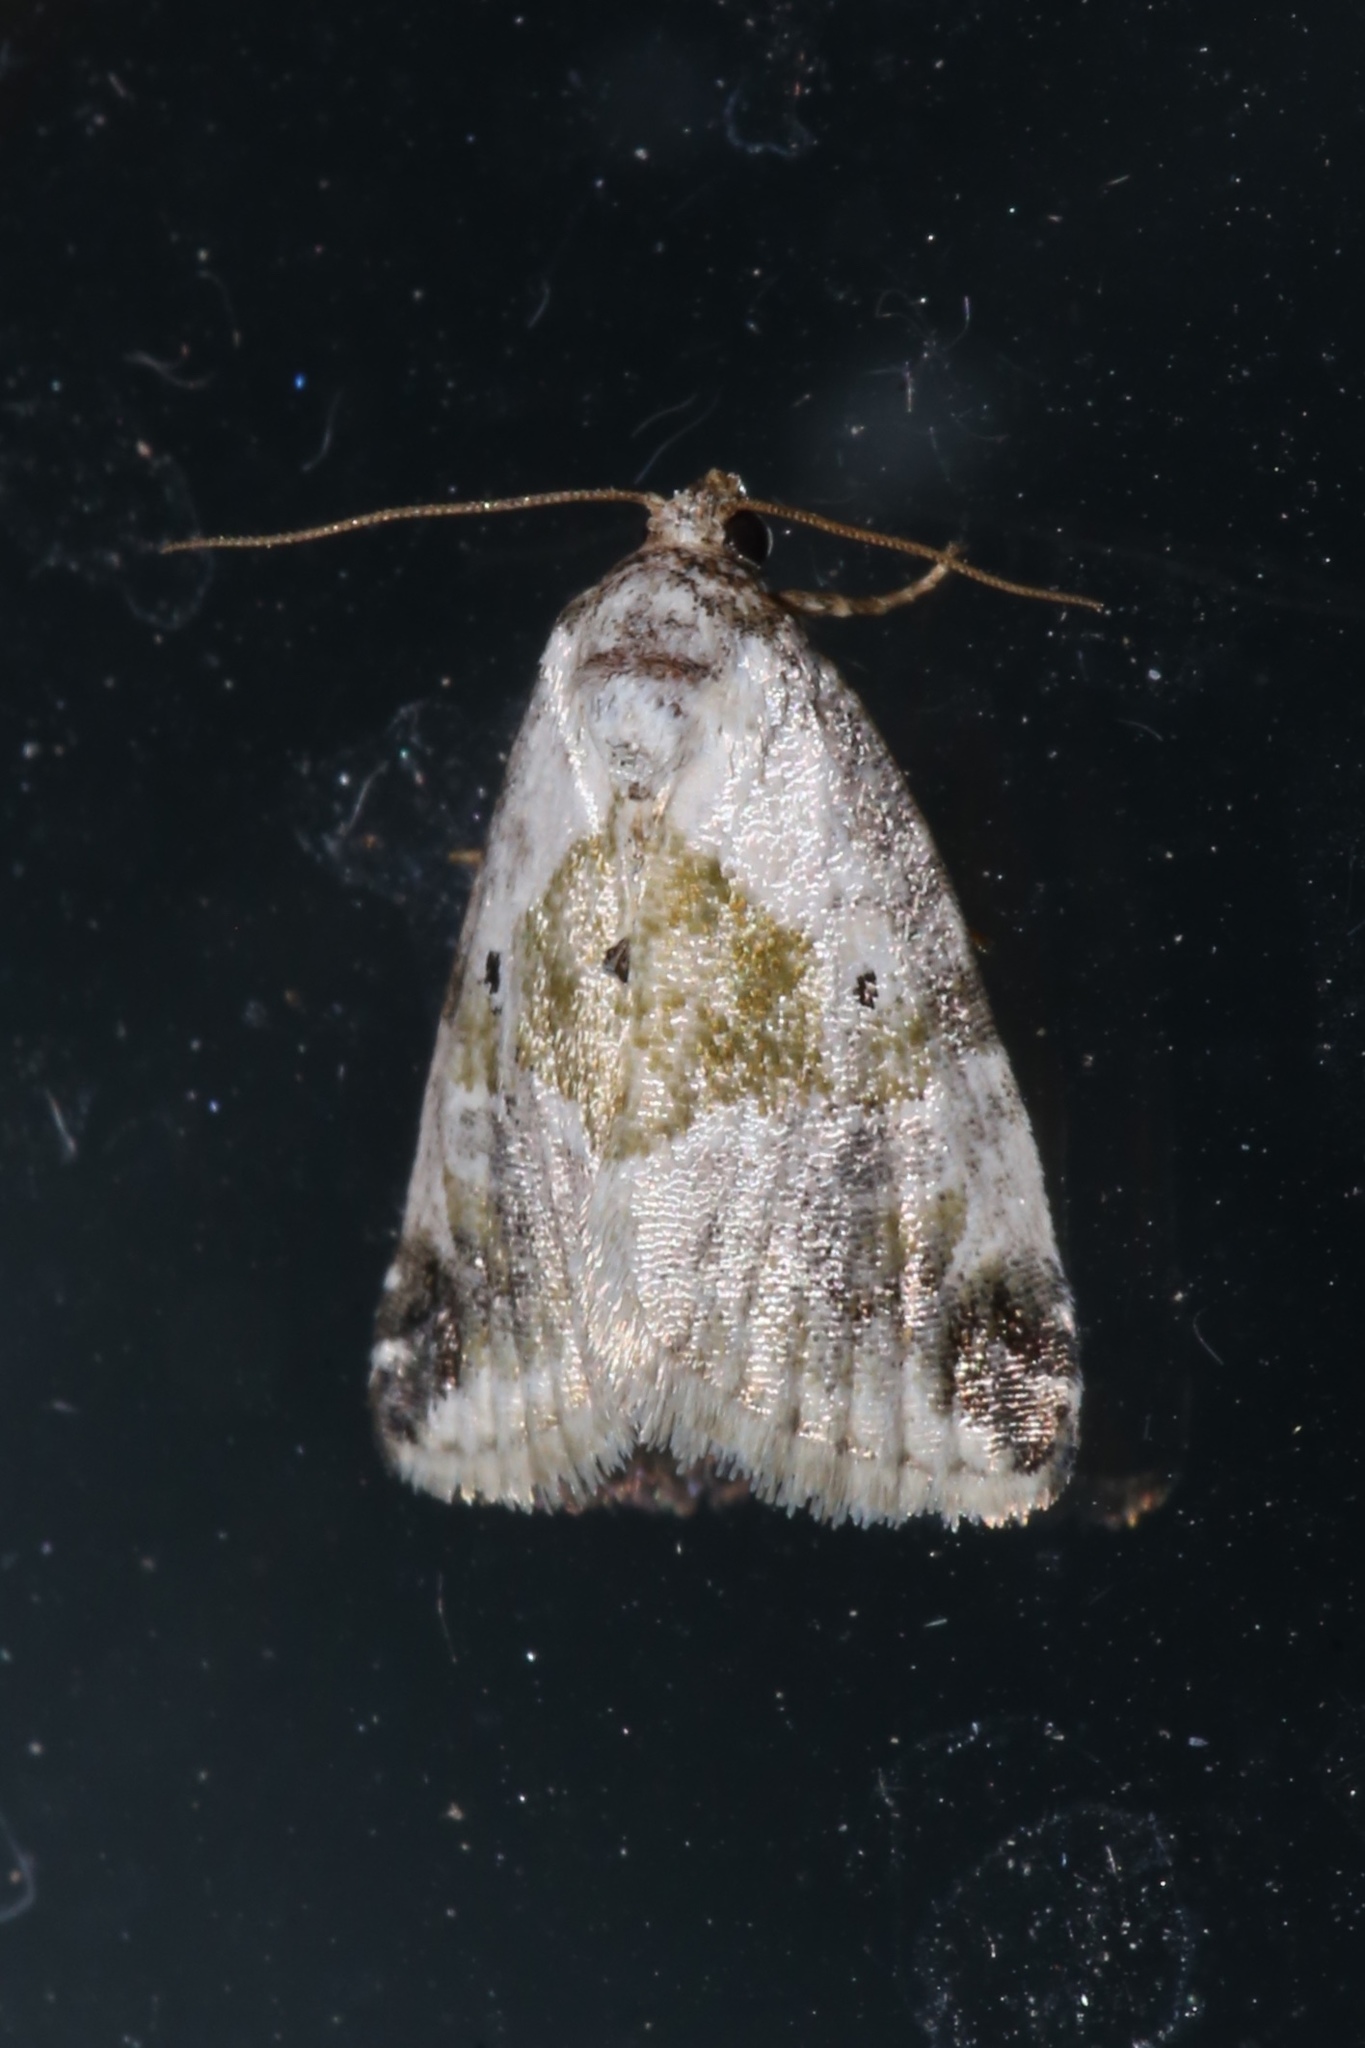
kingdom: Animalia
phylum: Arthropoda
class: Insecta
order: Lepidoptera
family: Noctuidae
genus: Maliattha
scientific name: Maliattha synochitis
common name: Black-dotted glyph
